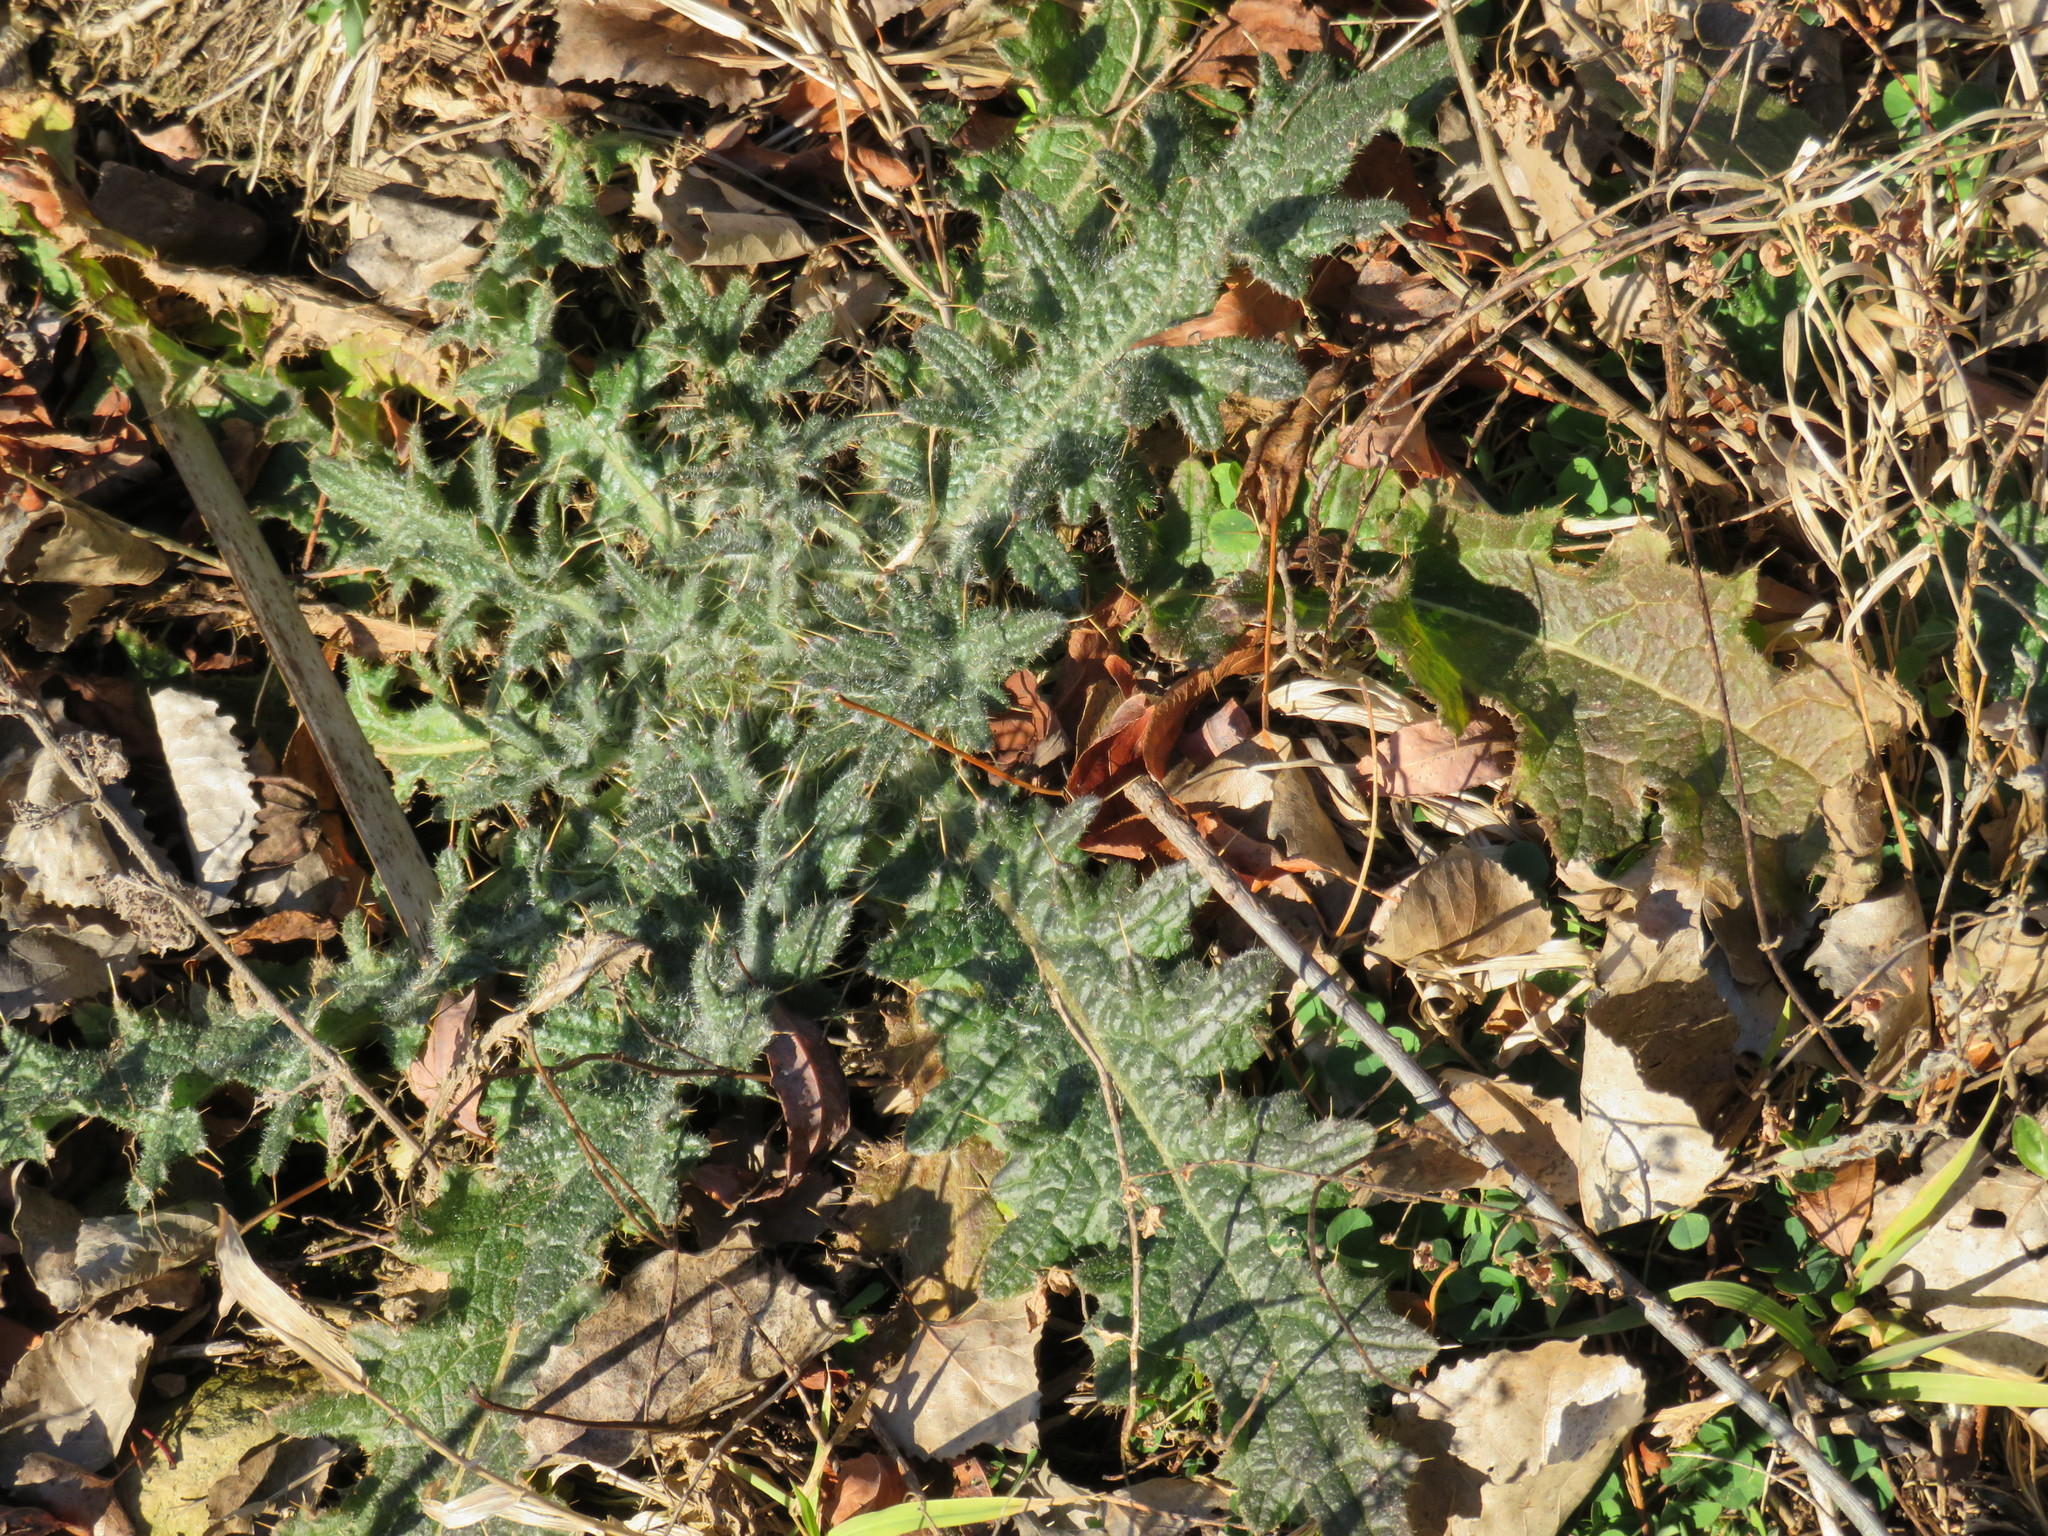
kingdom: Plantae
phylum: Tracheophyta
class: Magnoliopsida
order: Asterales
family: Asteraceae
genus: Cirsium
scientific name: Cirsium vulgare
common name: Bull thistle
